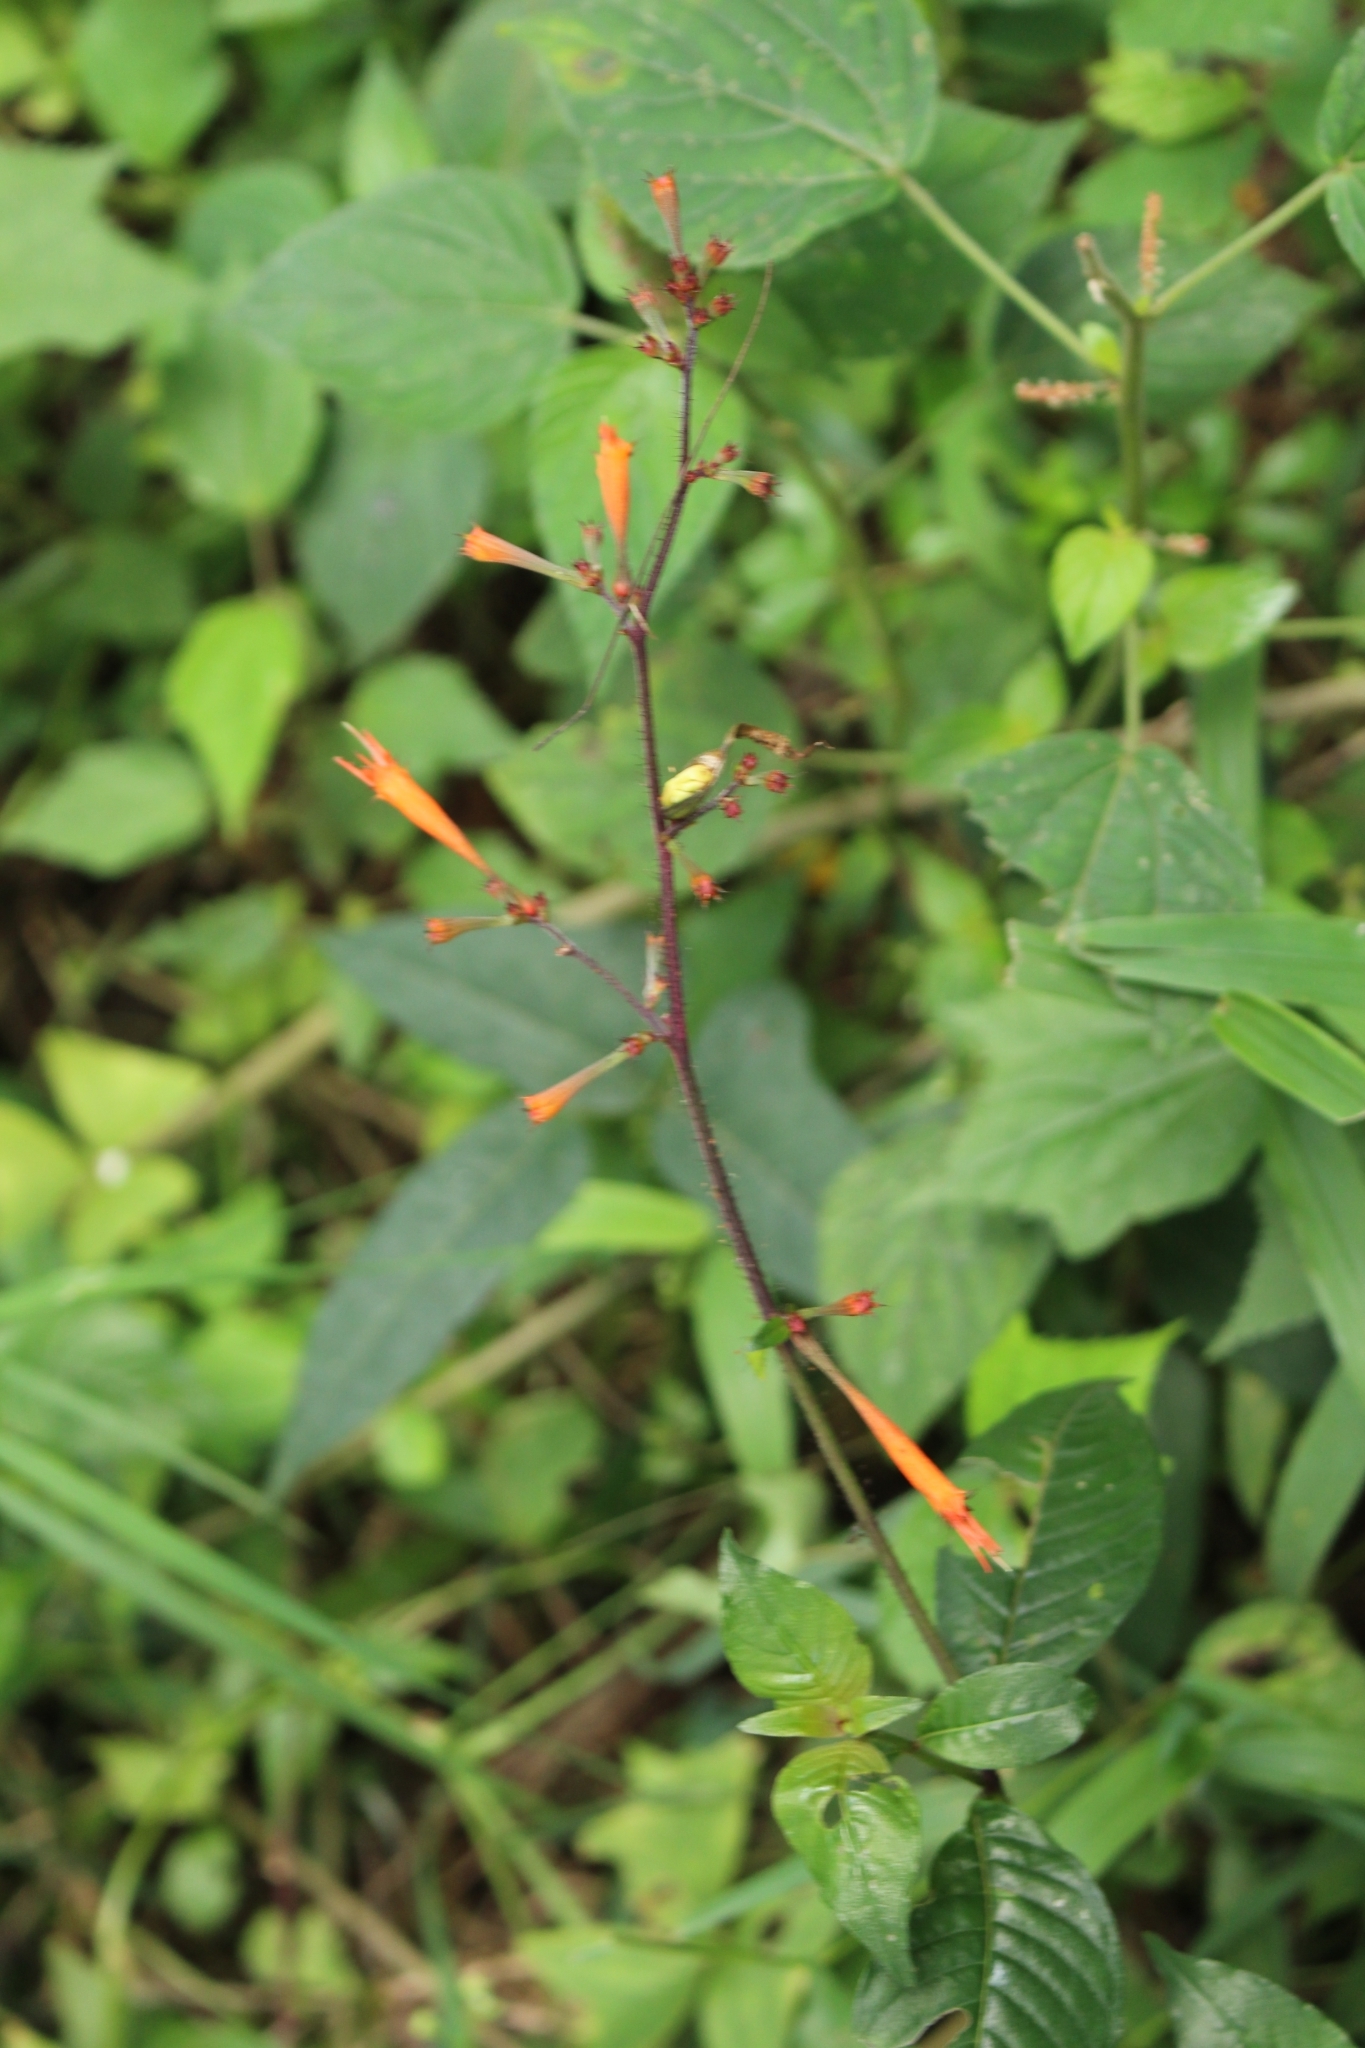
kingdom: Plantae
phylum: Tracheophyta
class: Magnoliopsida
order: Myrtales
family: Lythraceae
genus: Cuphea
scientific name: Cuphea appendiculata
